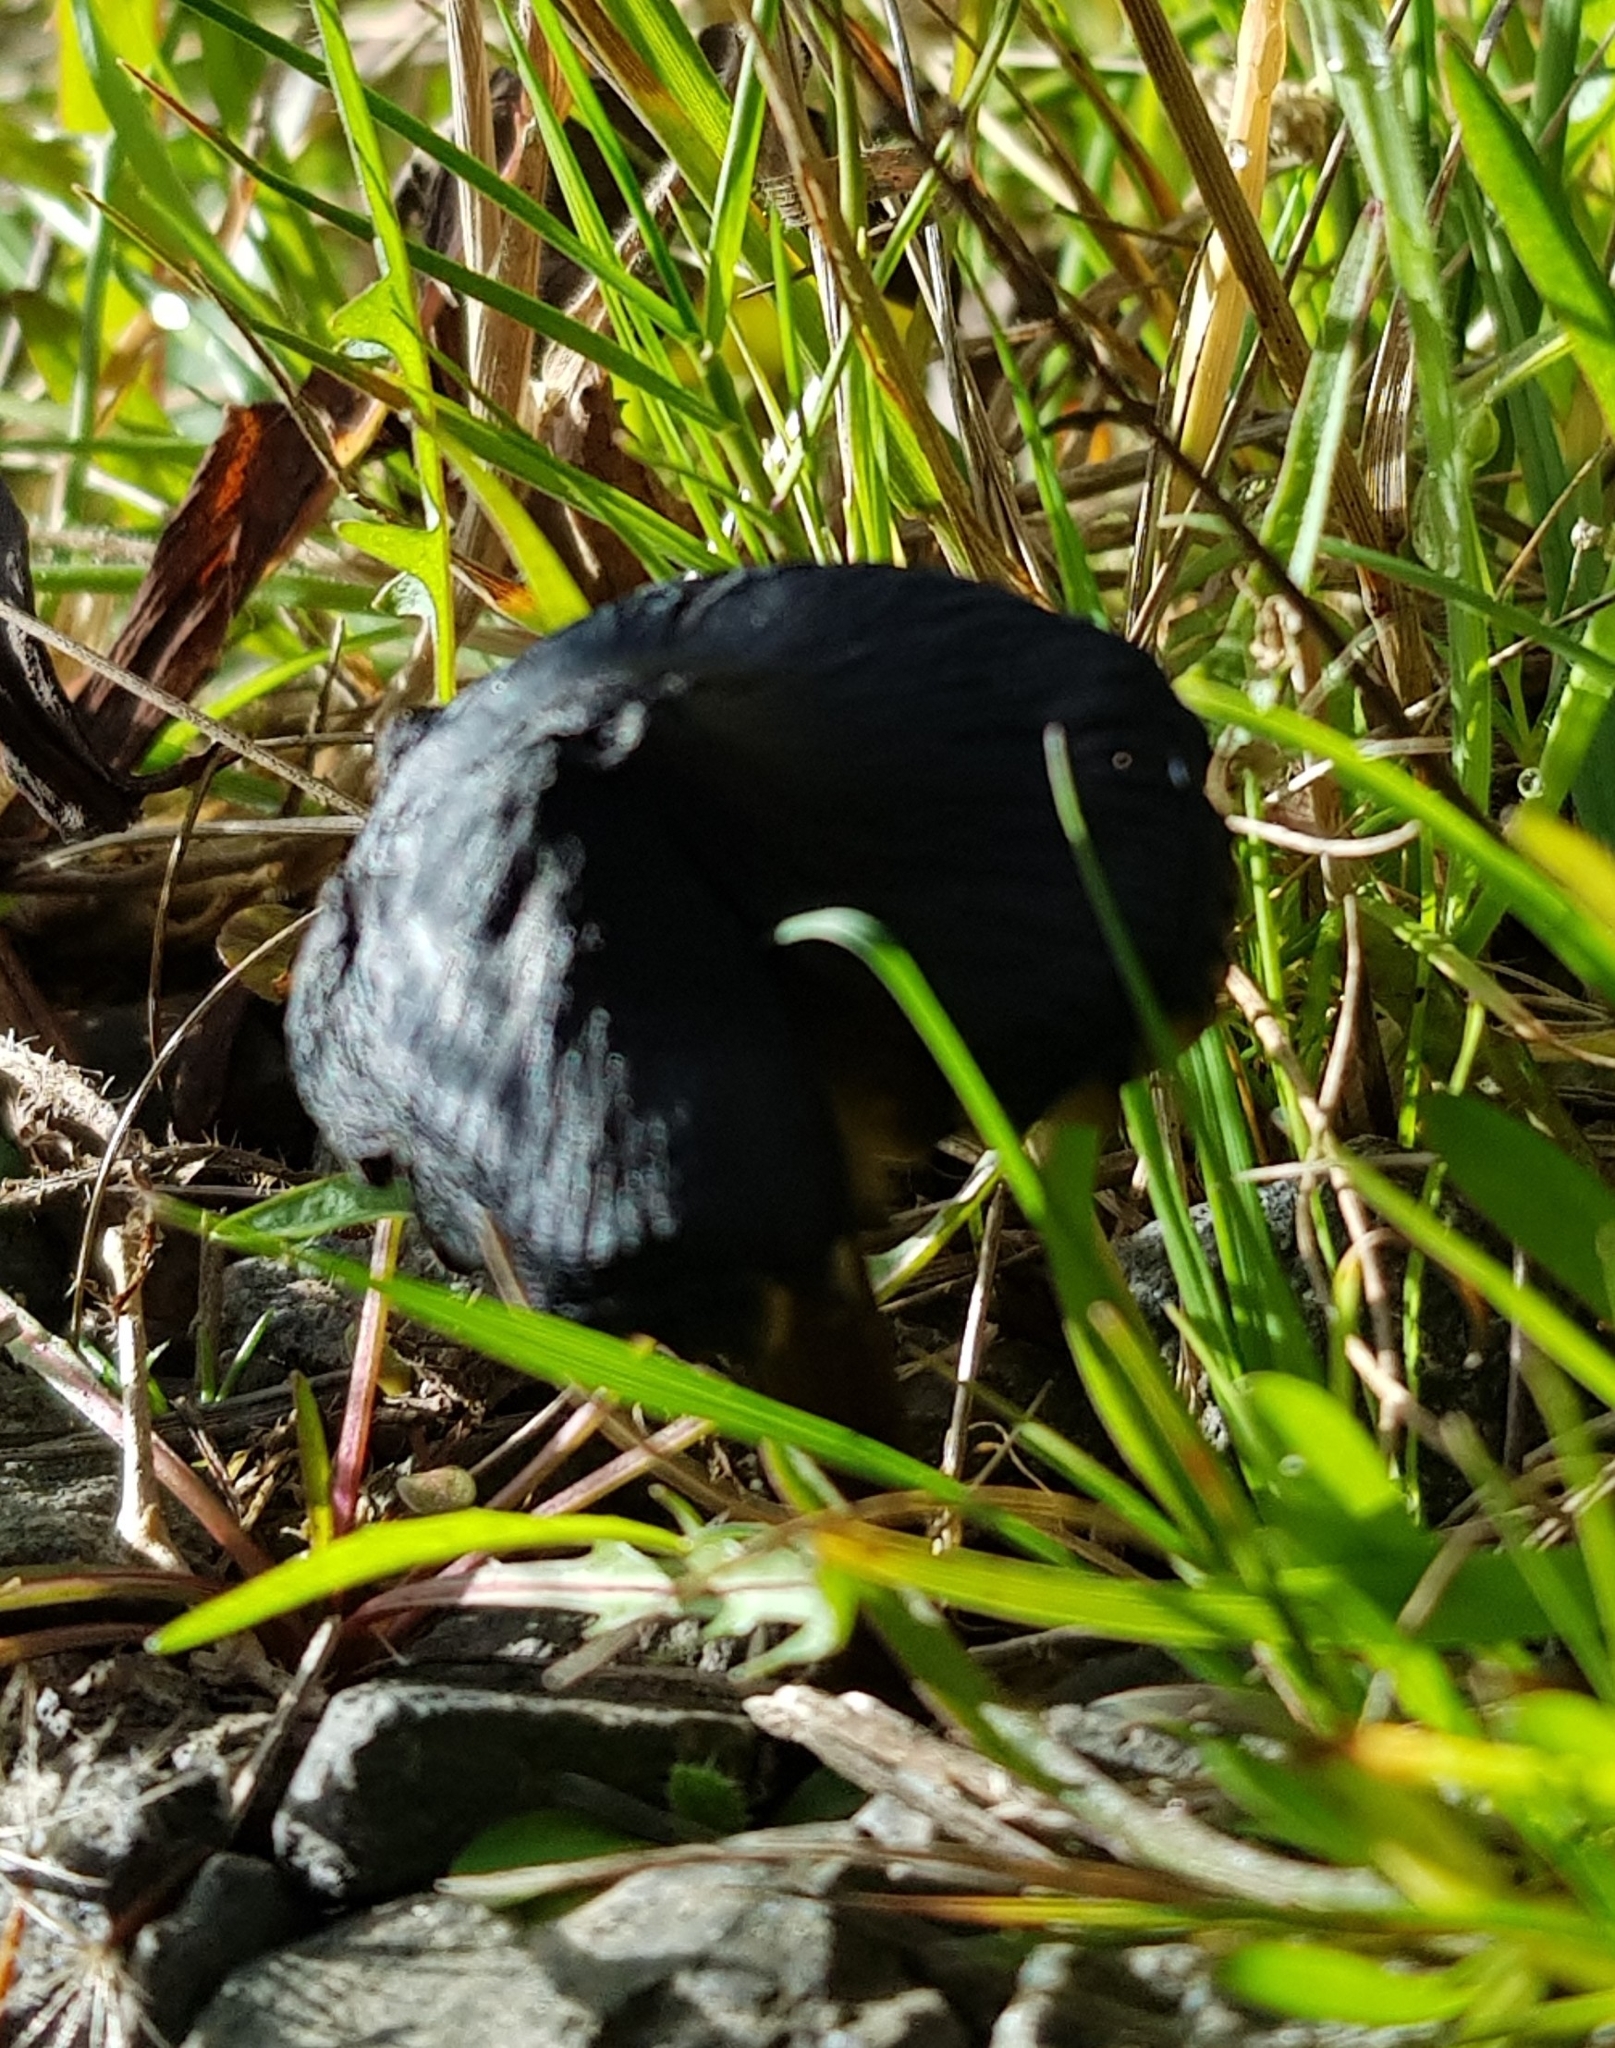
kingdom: Fungi
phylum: Basidiomycota
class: Agaricomycetes
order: Agaricales
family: Hygrophoraceae
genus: Hygrocybe
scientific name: Hygrocybe conica
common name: Blackening wax-cap
